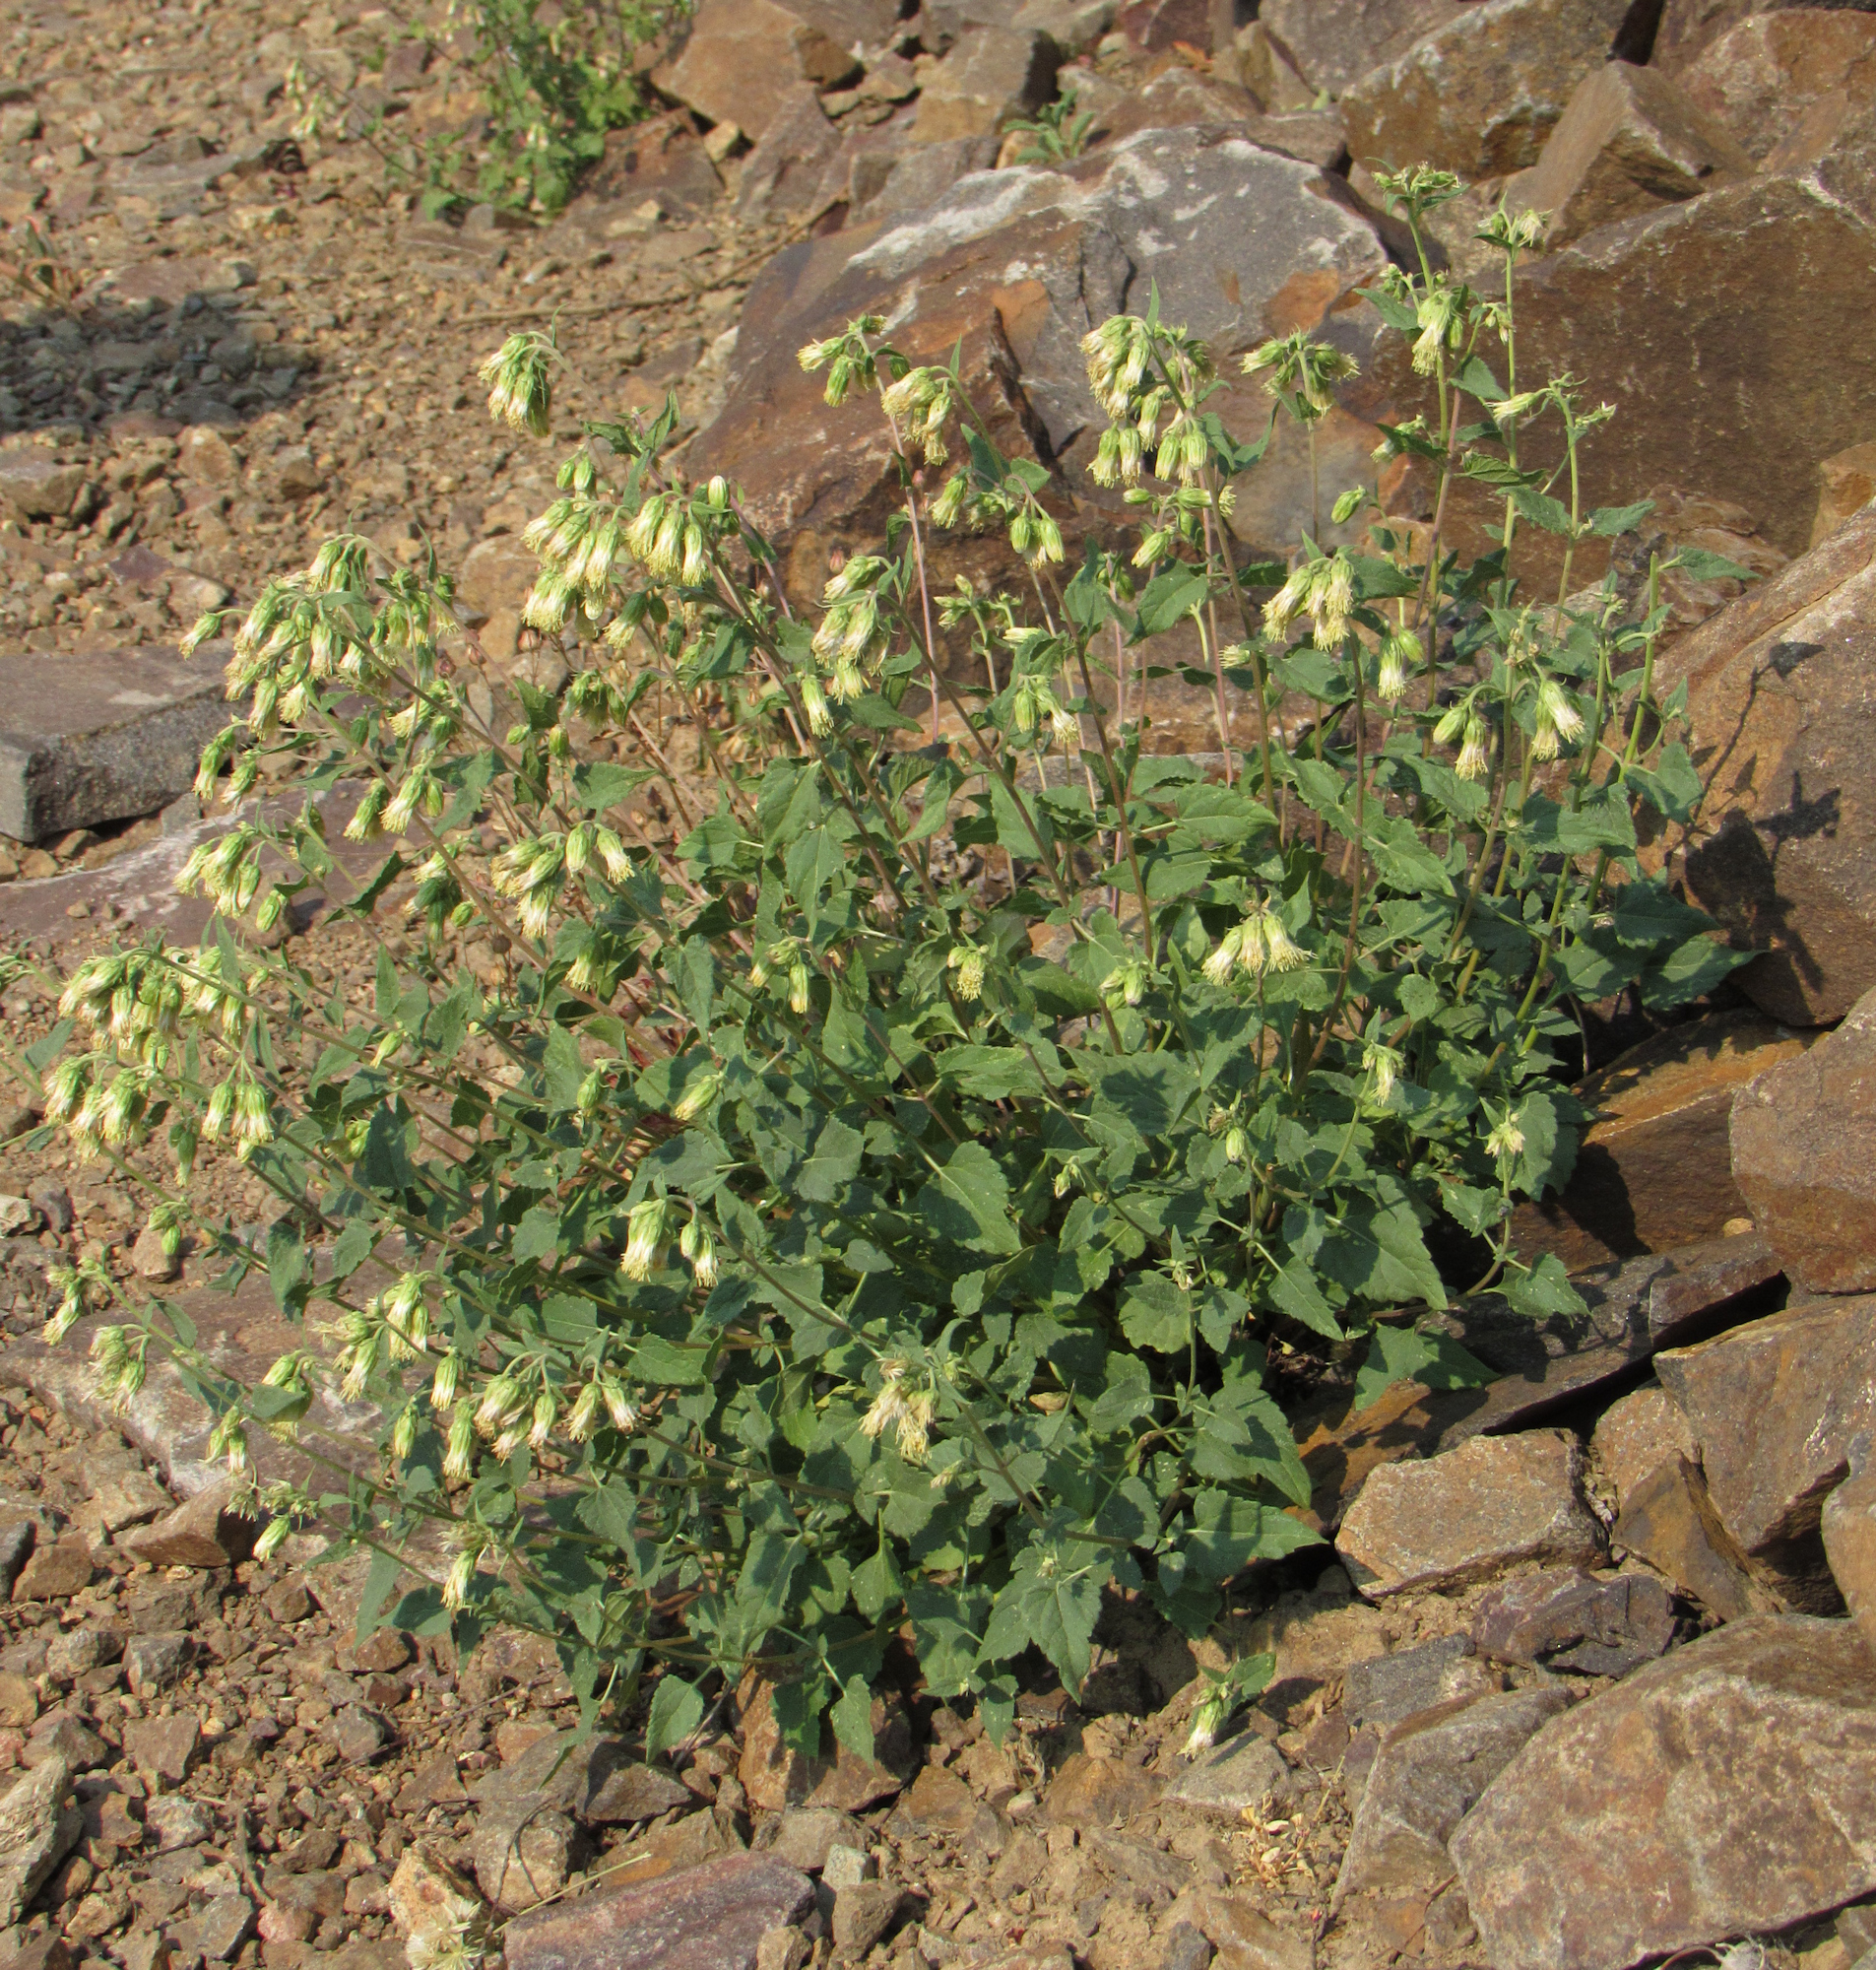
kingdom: Plantae
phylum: Tracheophyta
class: Magnoliopsida
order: Asterales
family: Asteraceae
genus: Brickellia
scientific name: Brickellia grandiflora
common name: Large-flowered brickellia
